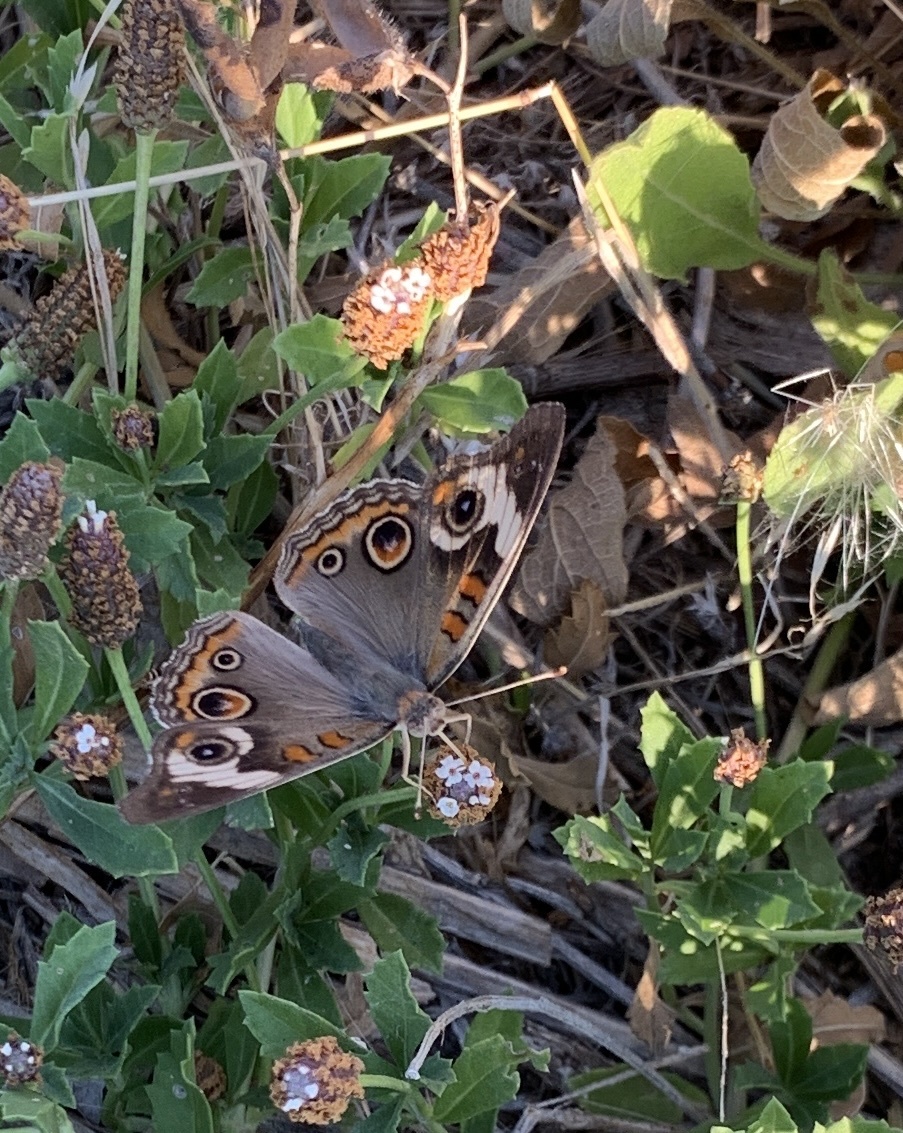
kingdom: Animalia
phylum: Arthropoda
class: Insecta
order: Lepidoptera
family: Nymphalidae
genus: Junonia
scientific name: Junonia coenia
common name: Common buckeye
